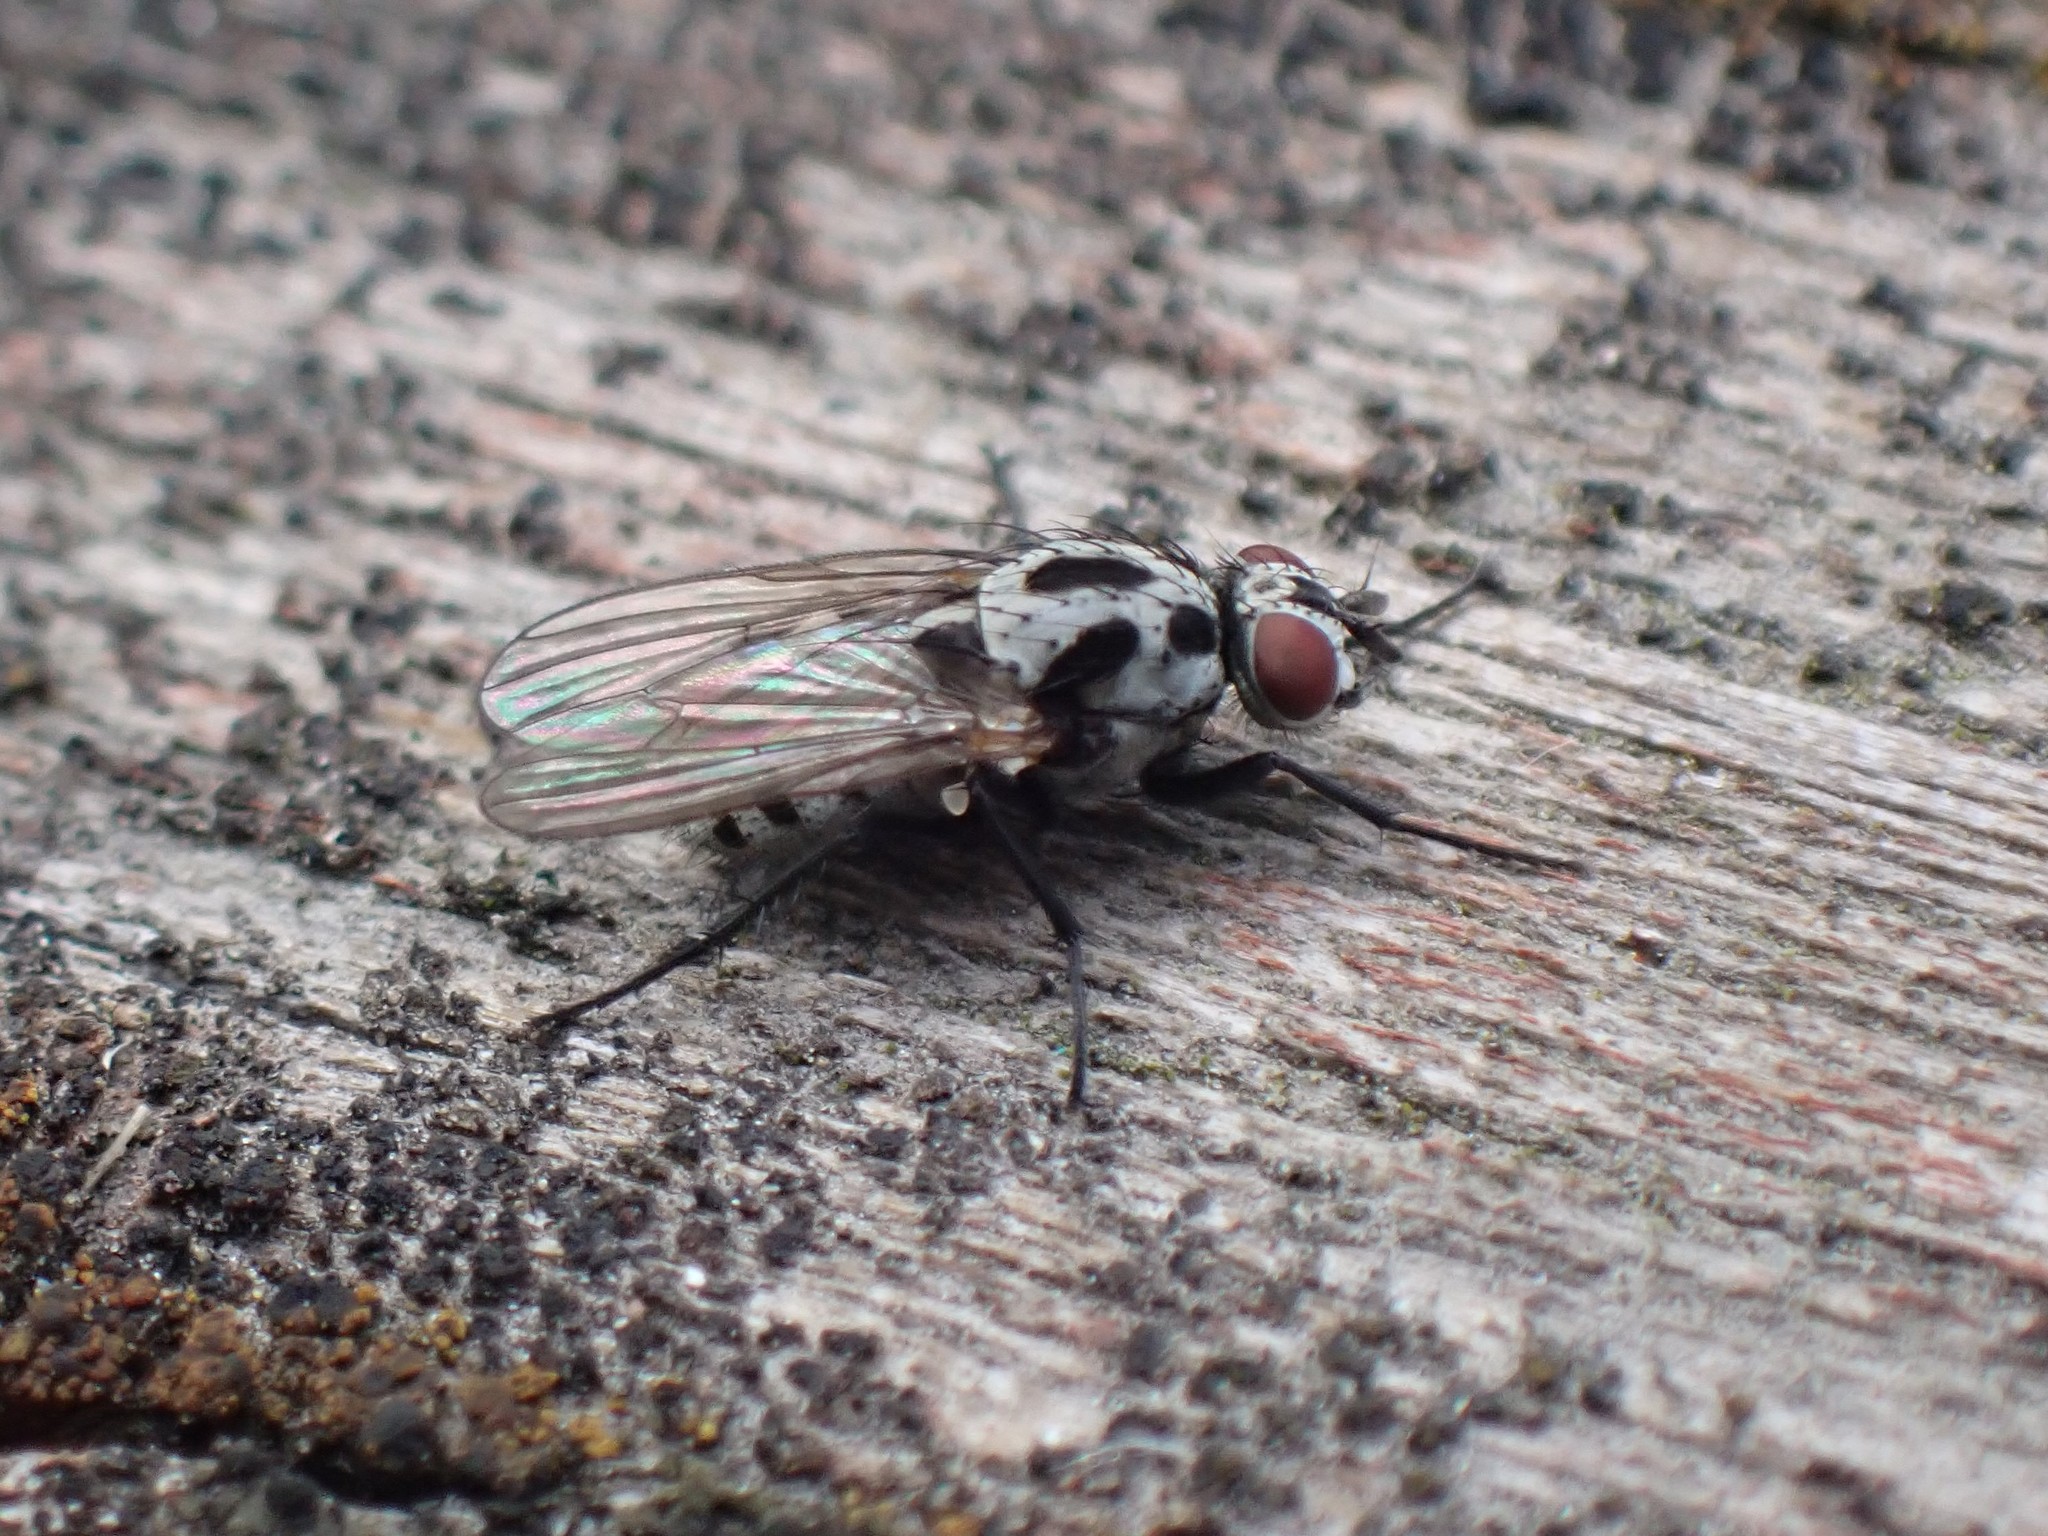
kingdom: Animalia
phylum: Arthropoda
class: Insecta
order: Diptera
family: Anthomyiidae
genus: Anthomyia
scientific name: Anthomyia procellaris
